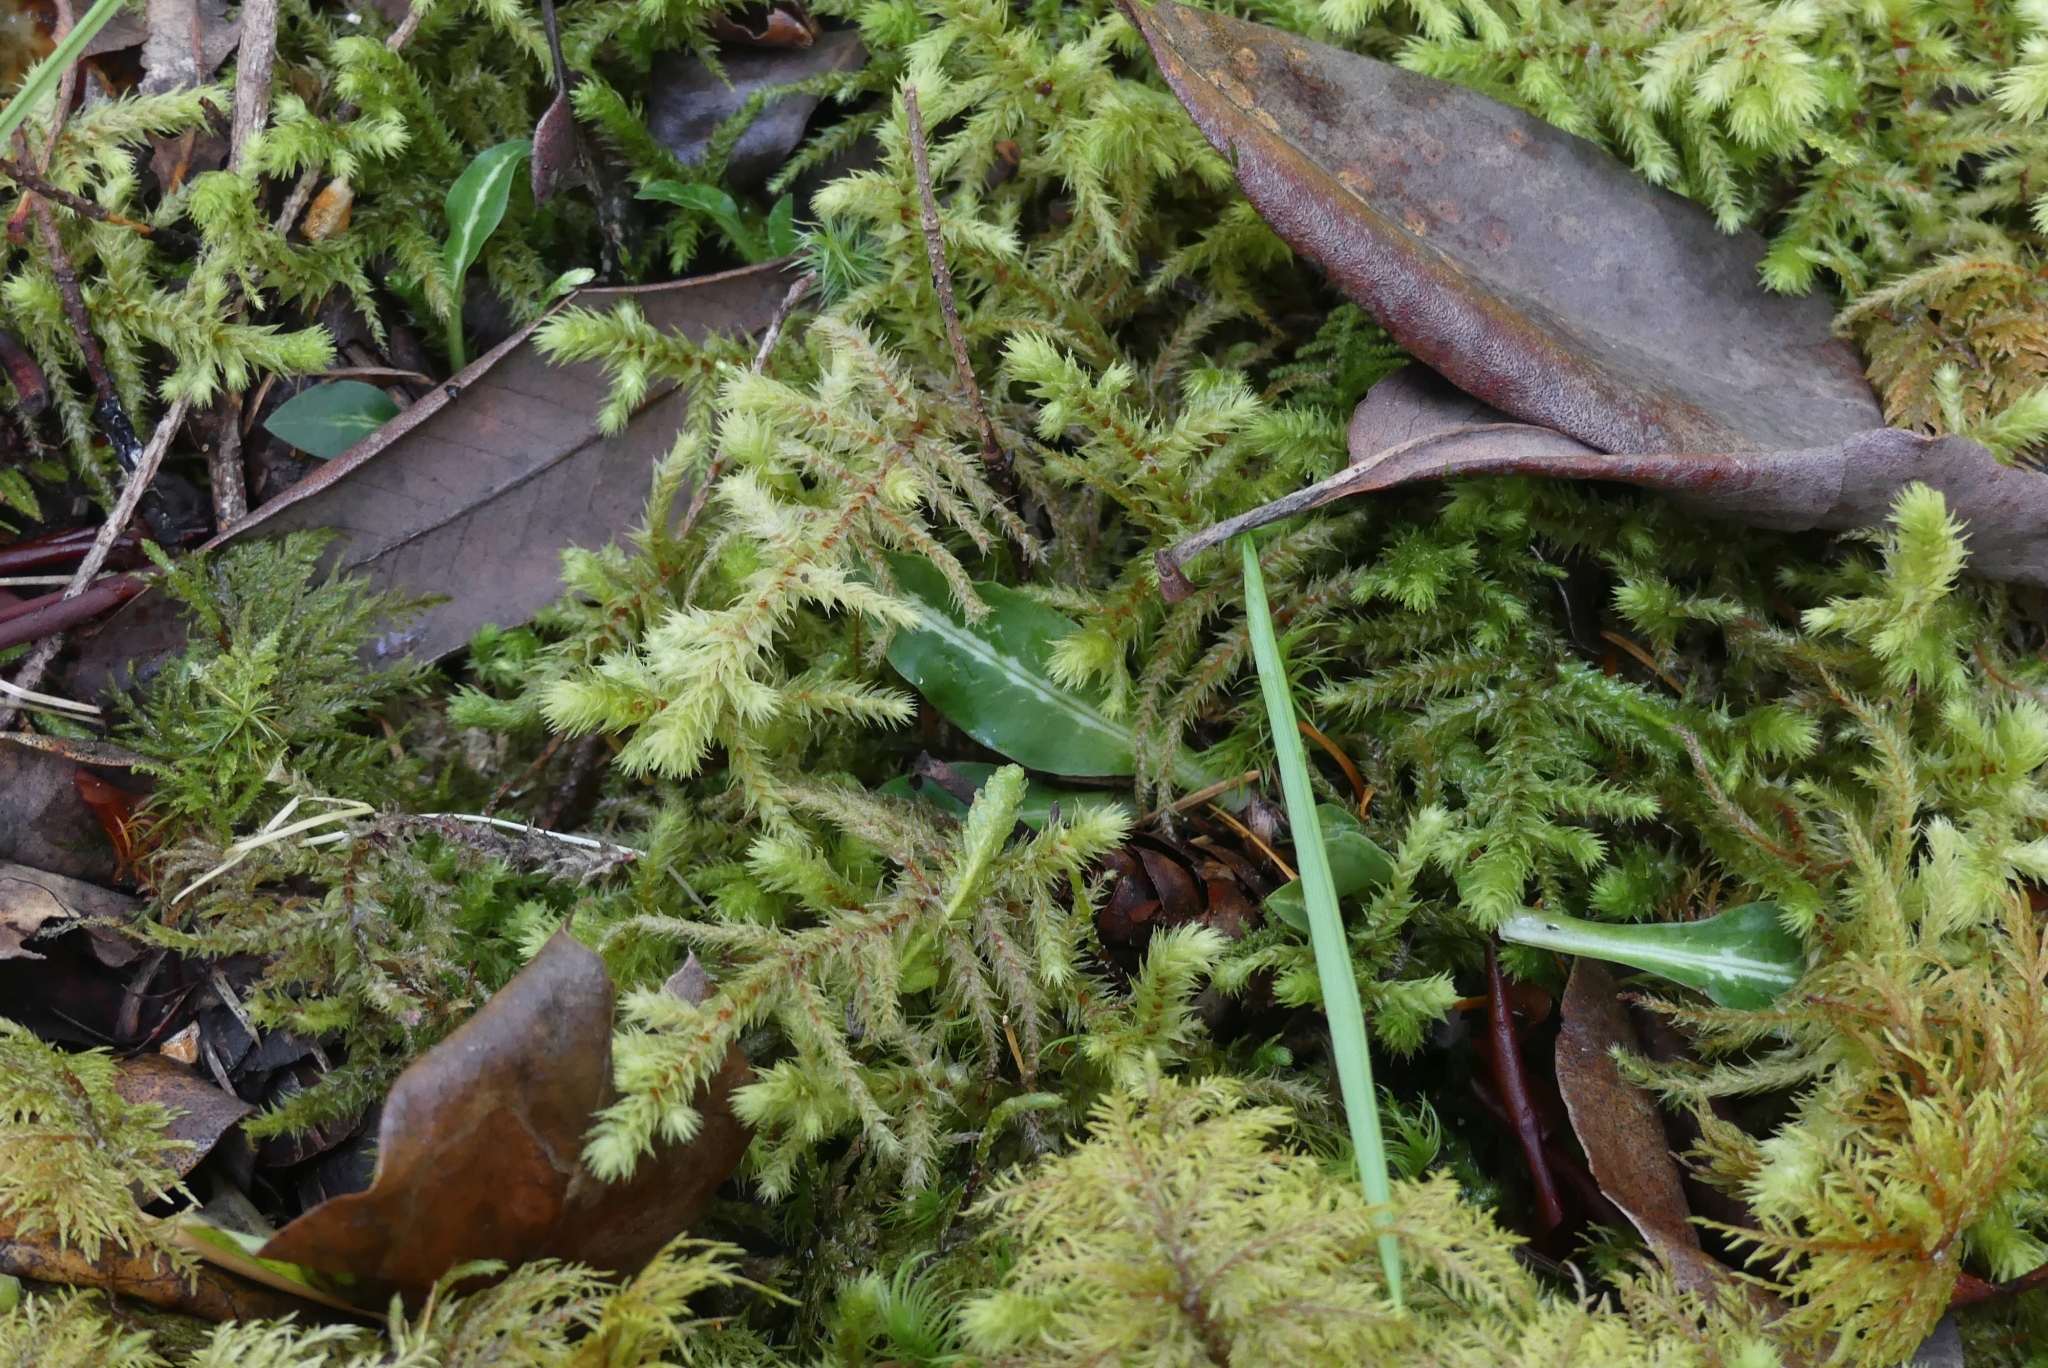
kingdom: Plantae
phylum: Tracheophyta
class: Liliopsida
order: Asparagales
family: Orchidaceae
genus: Goodyera
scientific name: Goodyera oblongifolia
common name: Giant rattlesnake-plantain
